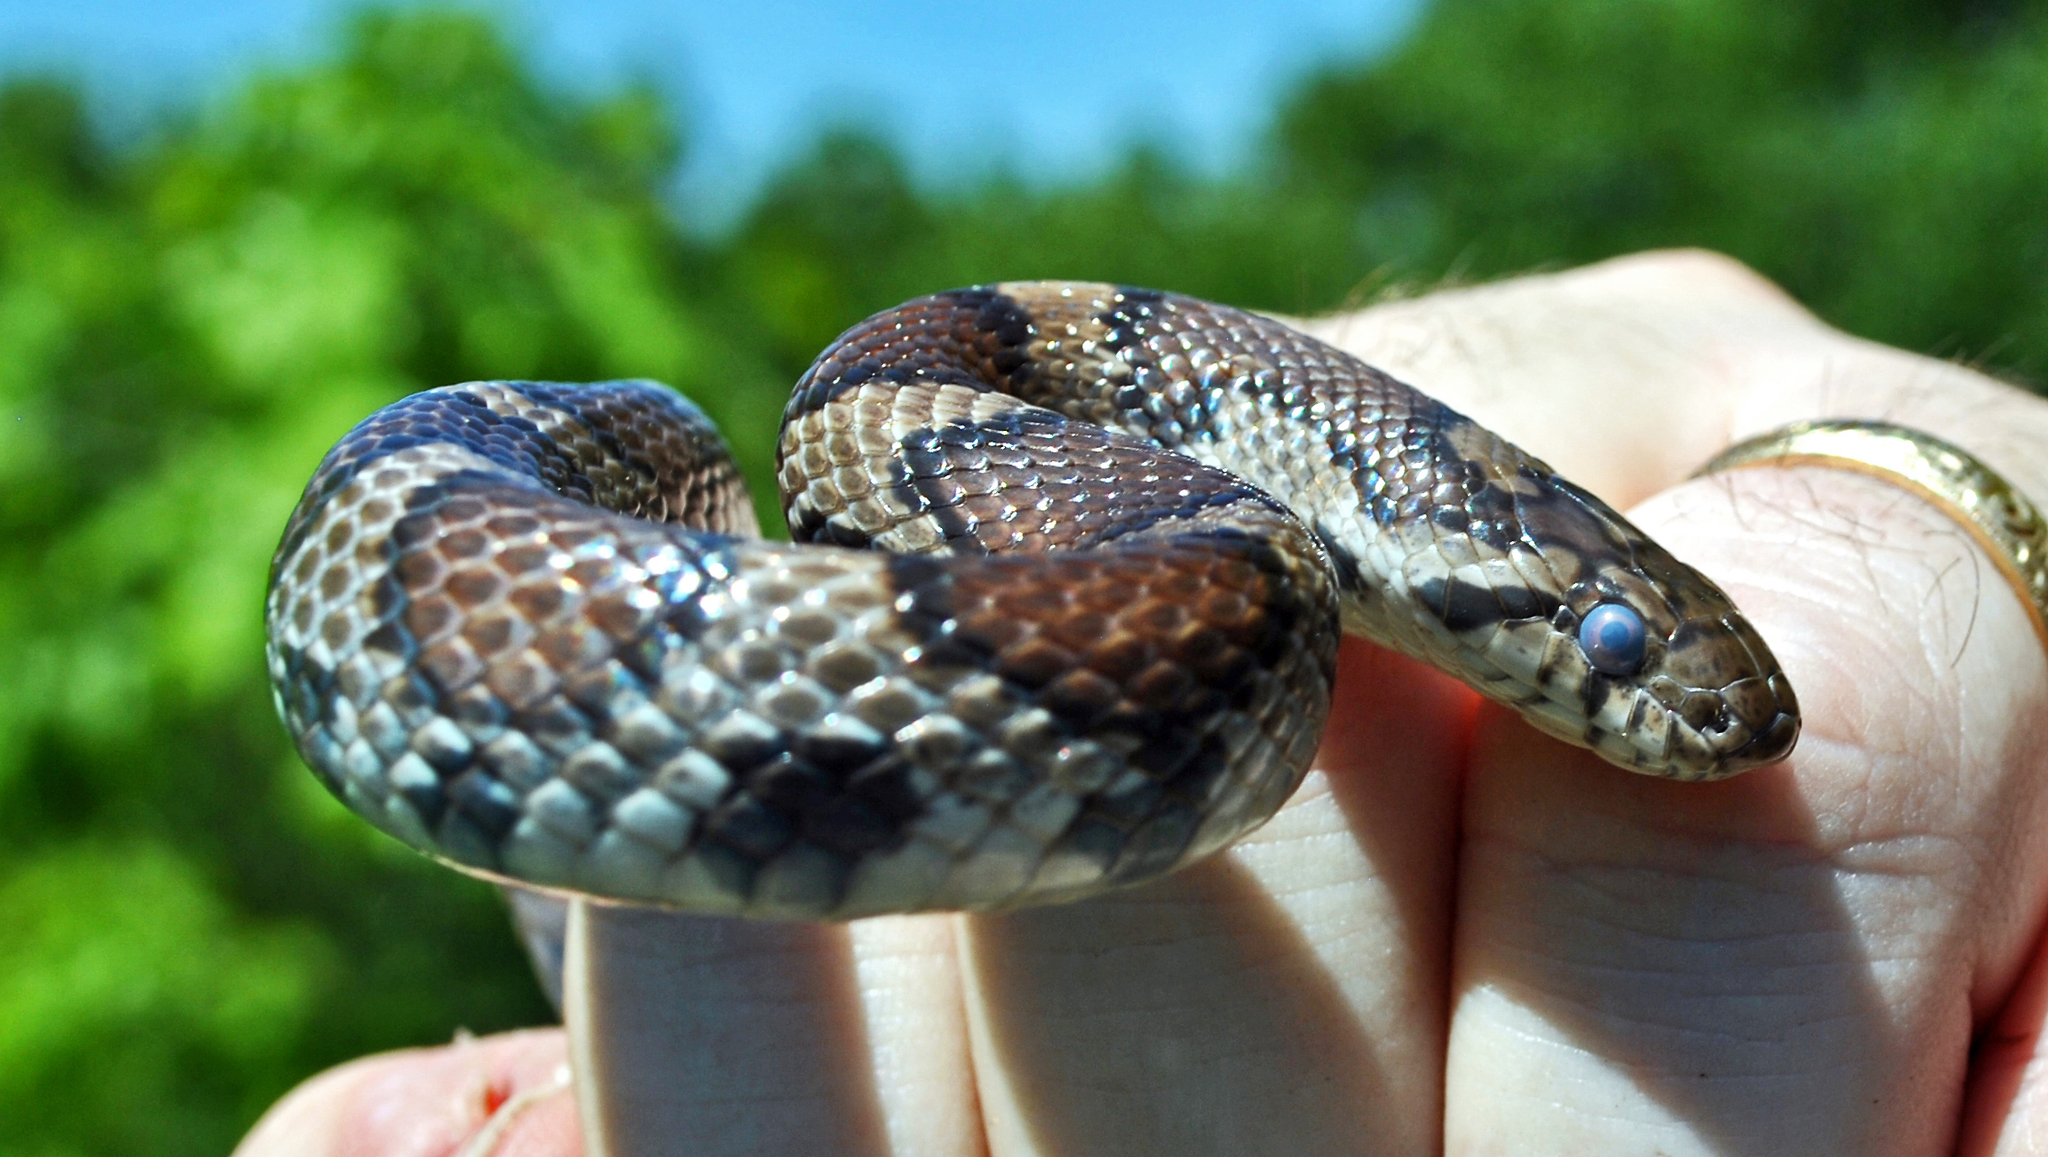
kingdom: Animalia
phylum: Chordata
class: Squamata
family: Colubridae
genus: Lampropeltis
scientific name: Lampropeltis triangulum
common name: Eastern milksnake
